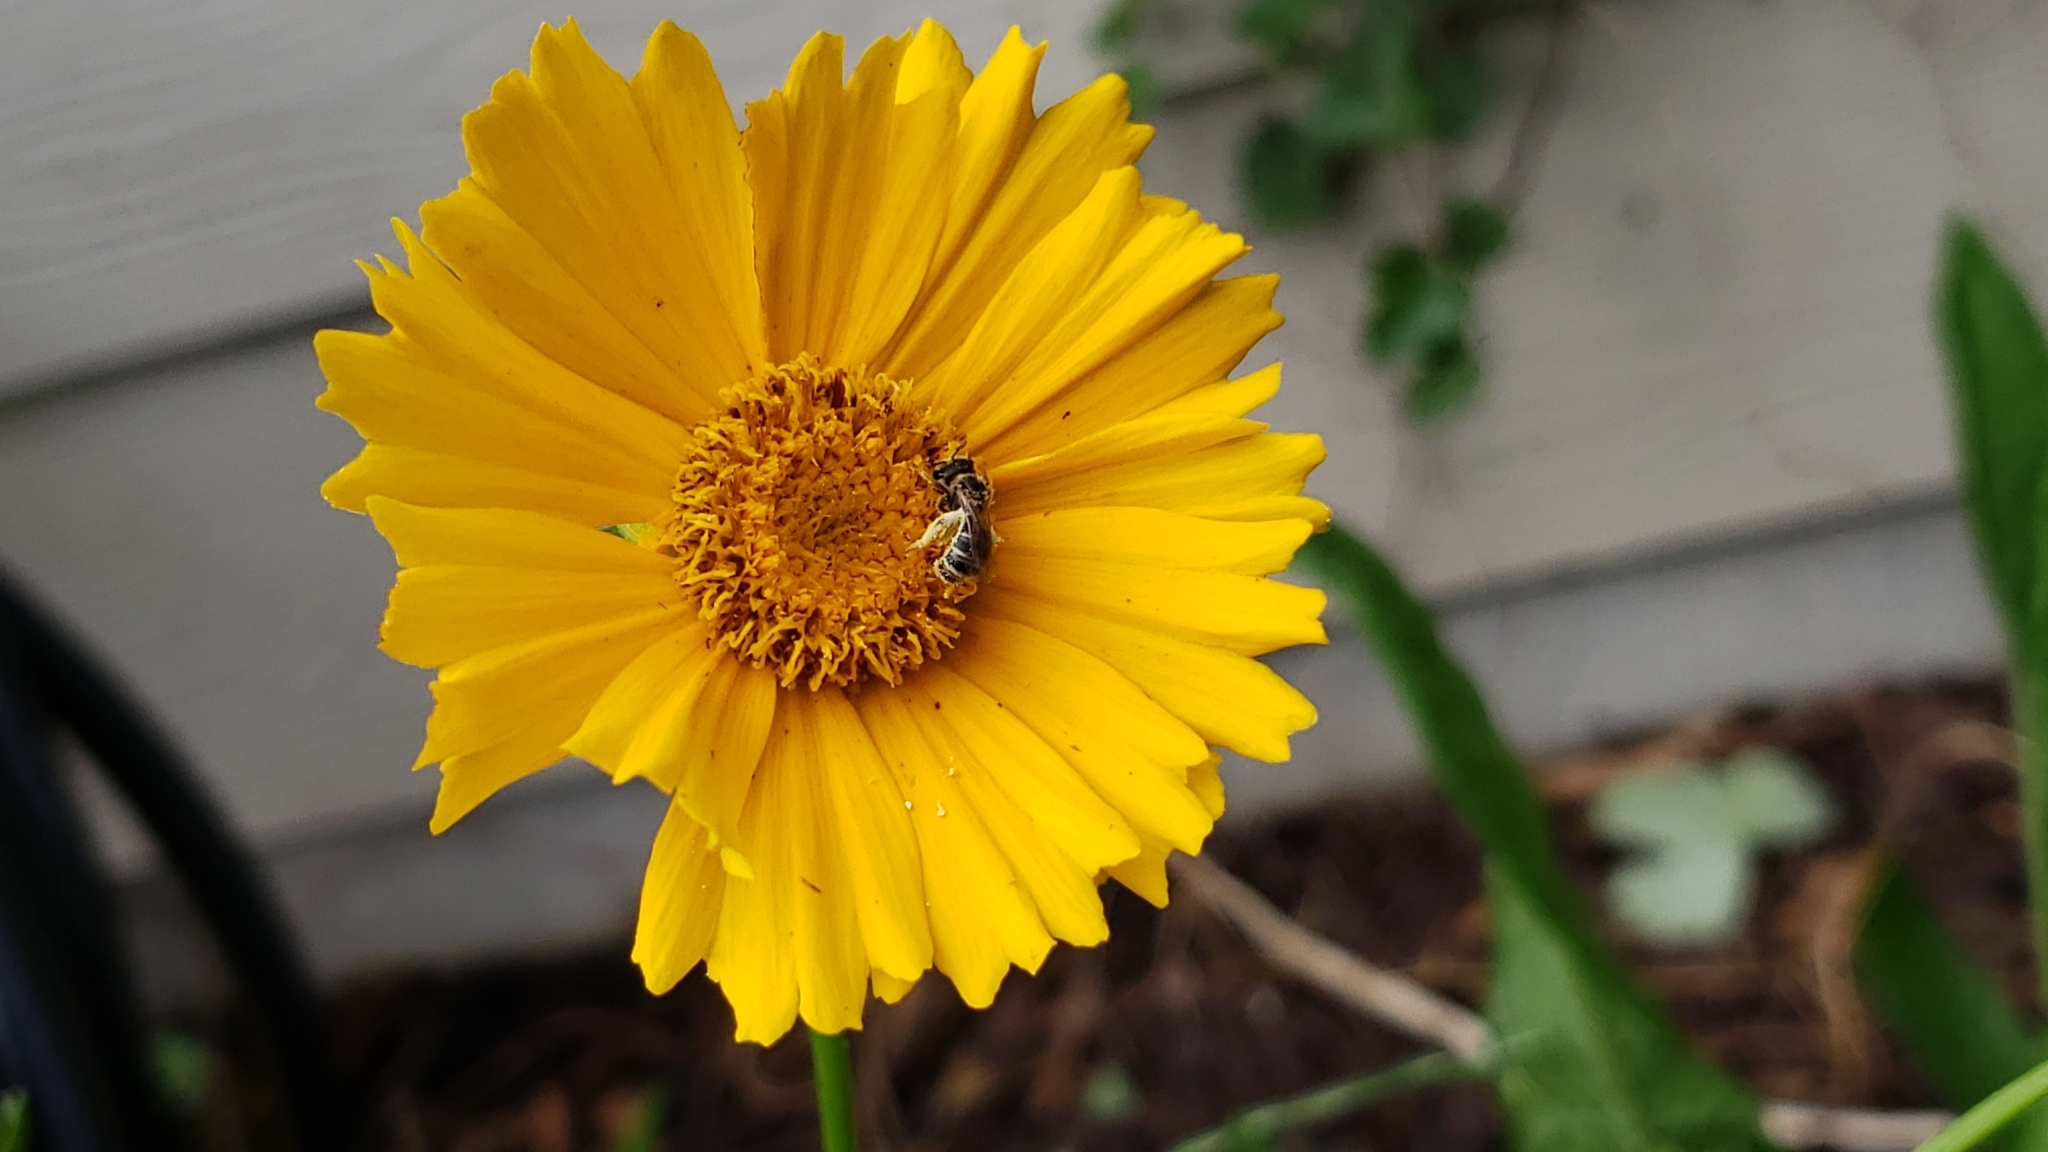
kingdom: Plantae
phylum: Tracheophyta
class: Magnoliopsida
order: Asterales
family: Asteraceae
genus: Coreopsis
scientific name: Coreopsis lanceolata
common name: Garden coreopsis
